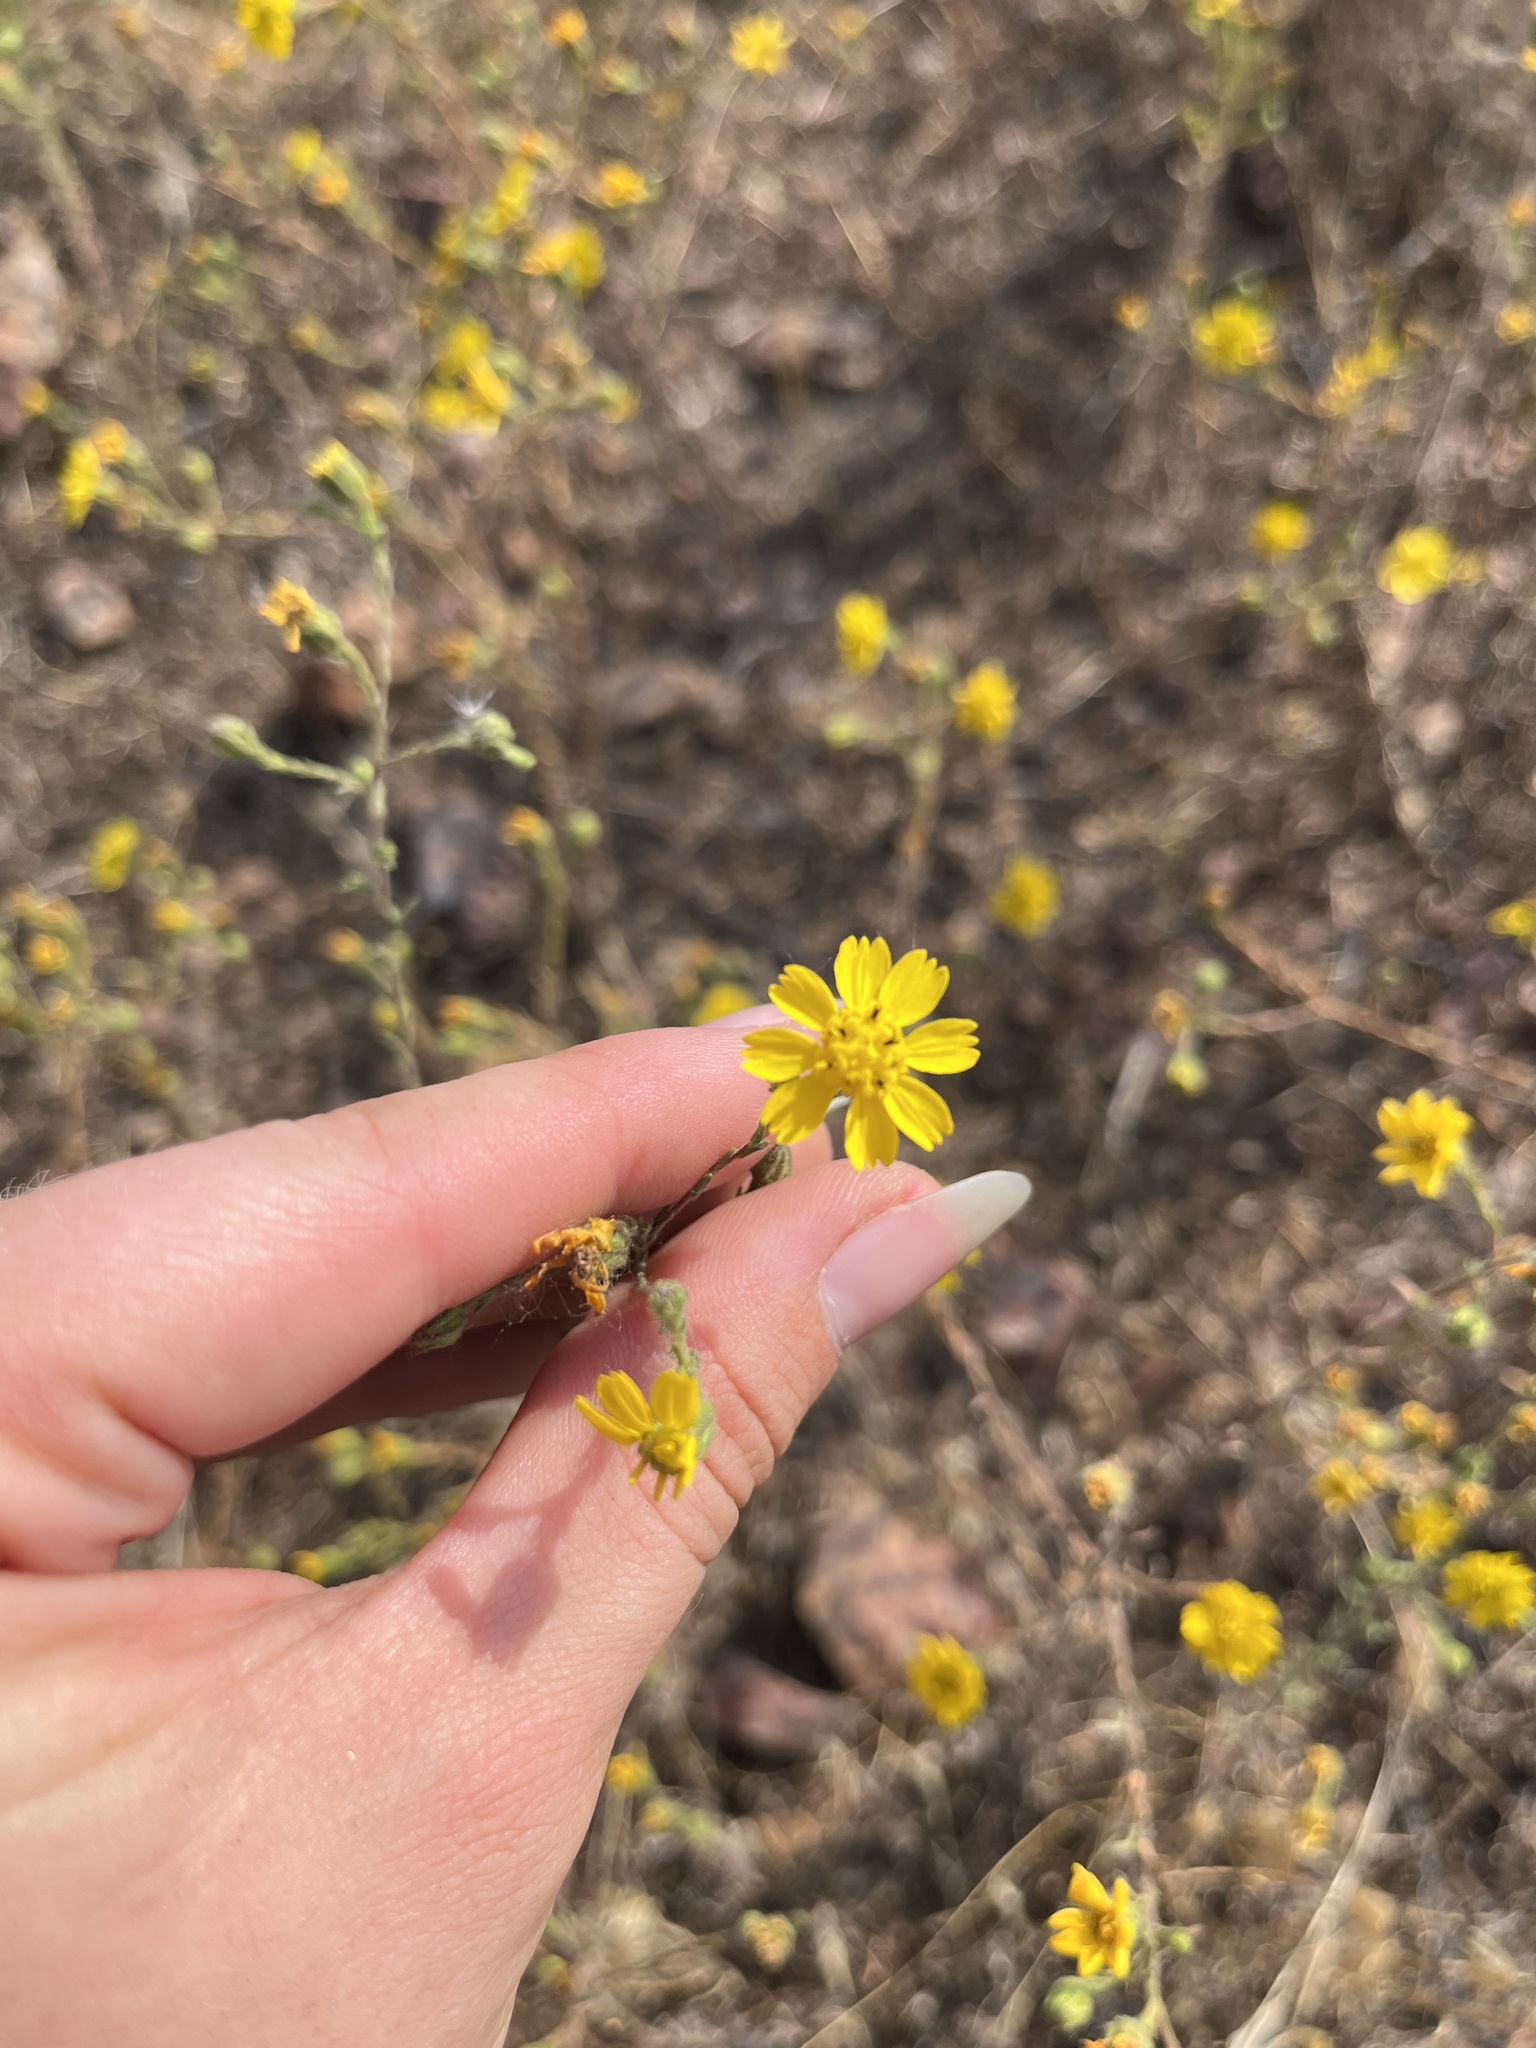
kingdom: Plantae
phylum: Tracheophyta
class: Magnoliopsida
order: Asterales
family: Asteraceae
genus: Deinandra
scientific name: Deinandra paniculata
